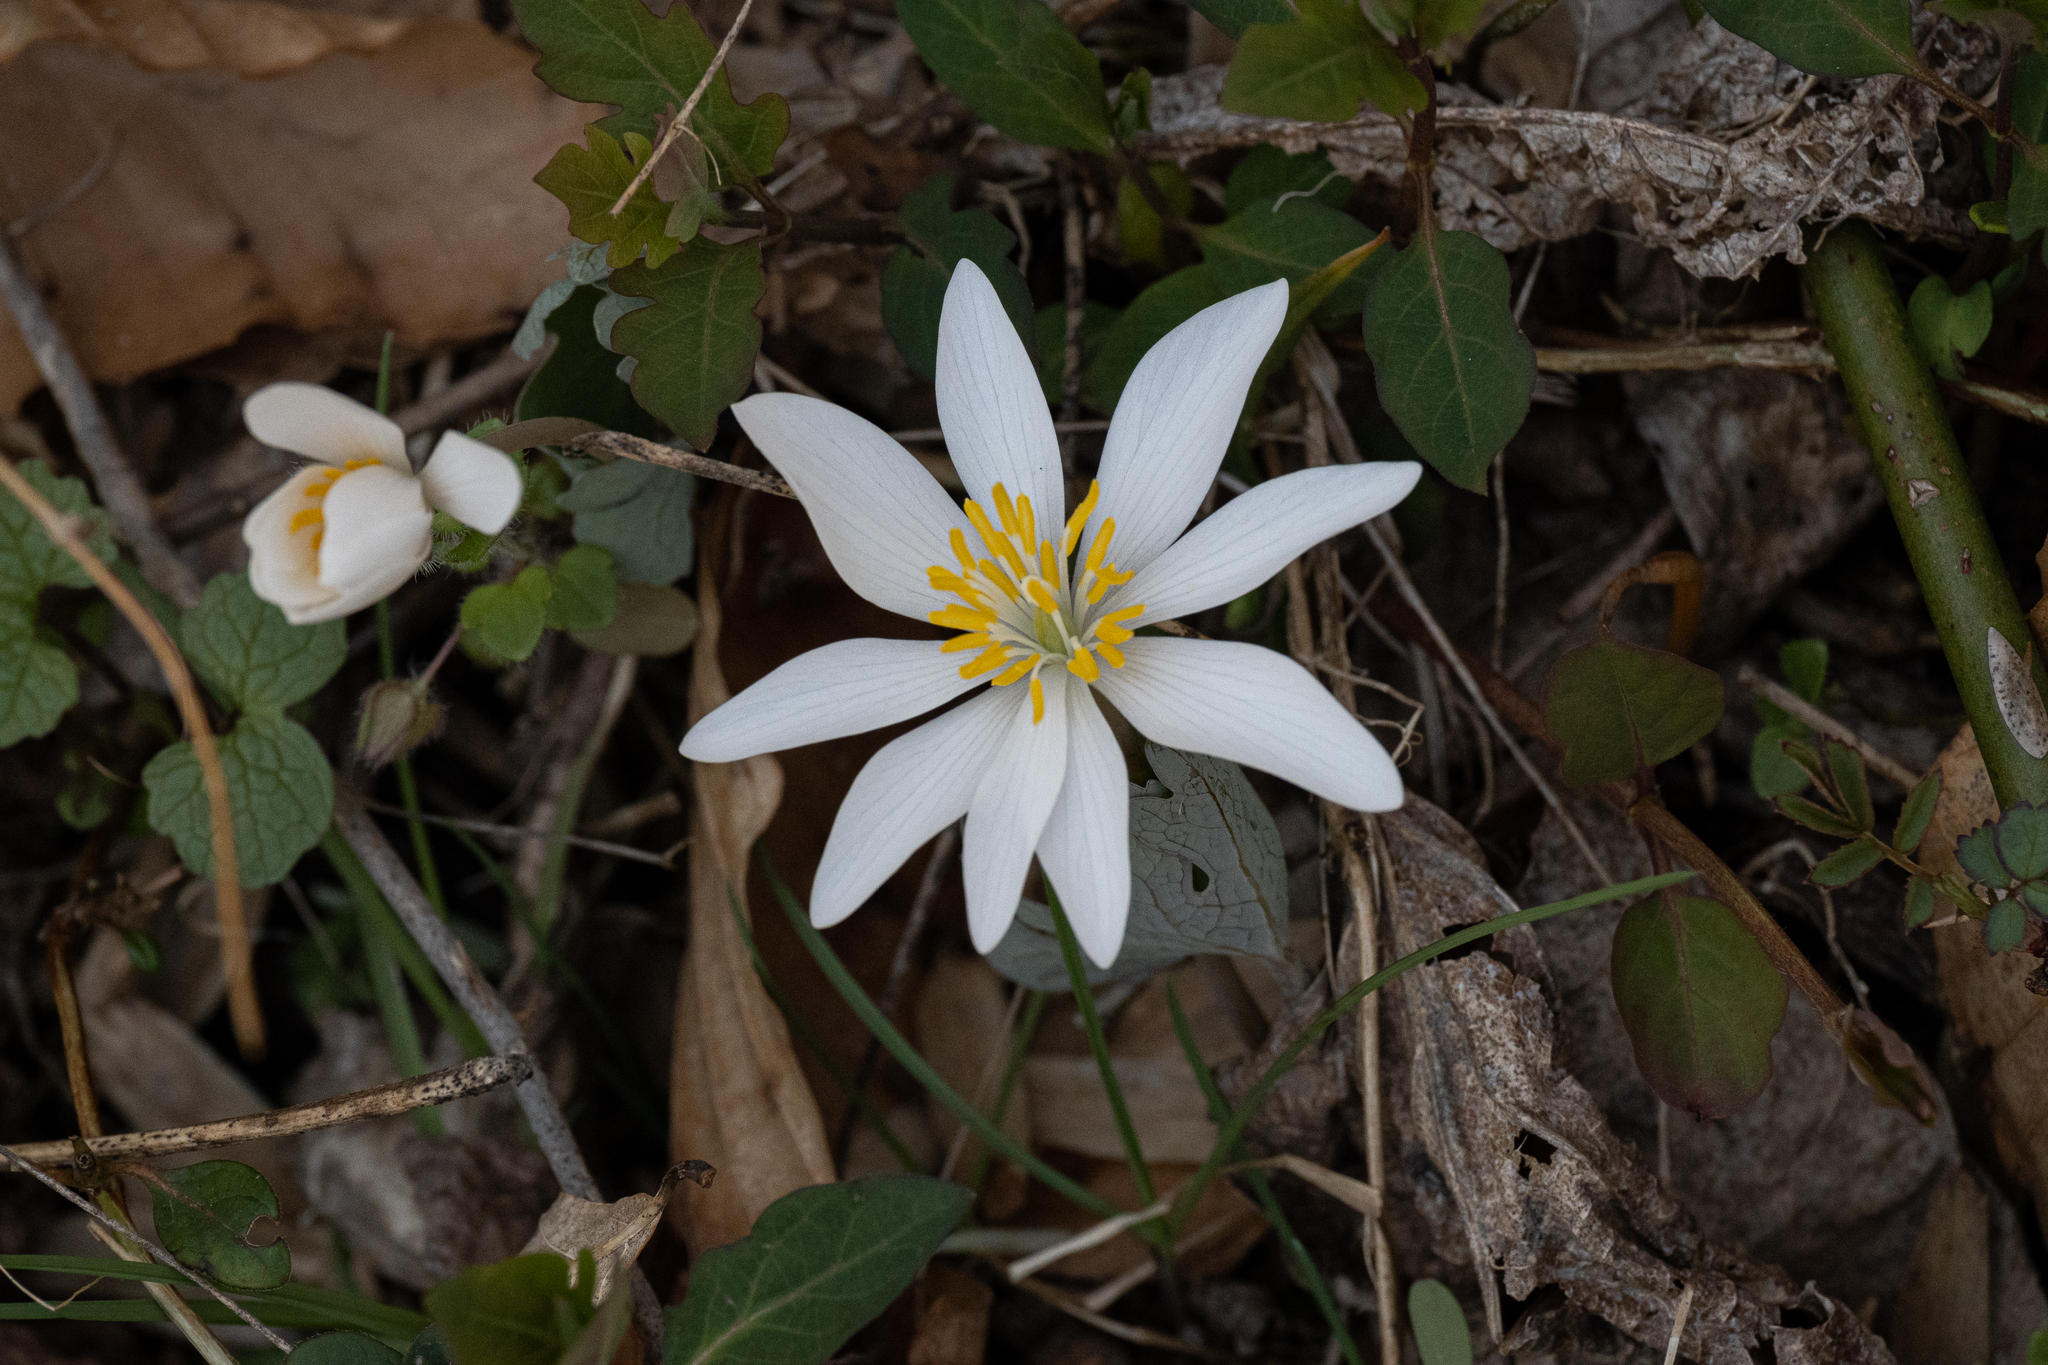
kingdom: Plantae
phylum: Tracheophyta
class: Magnoliopsida
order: Ranunculales
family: Papaveraceae
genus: Sanguinaria
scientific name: Sanguinaria canadensis
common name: Bloodroot
